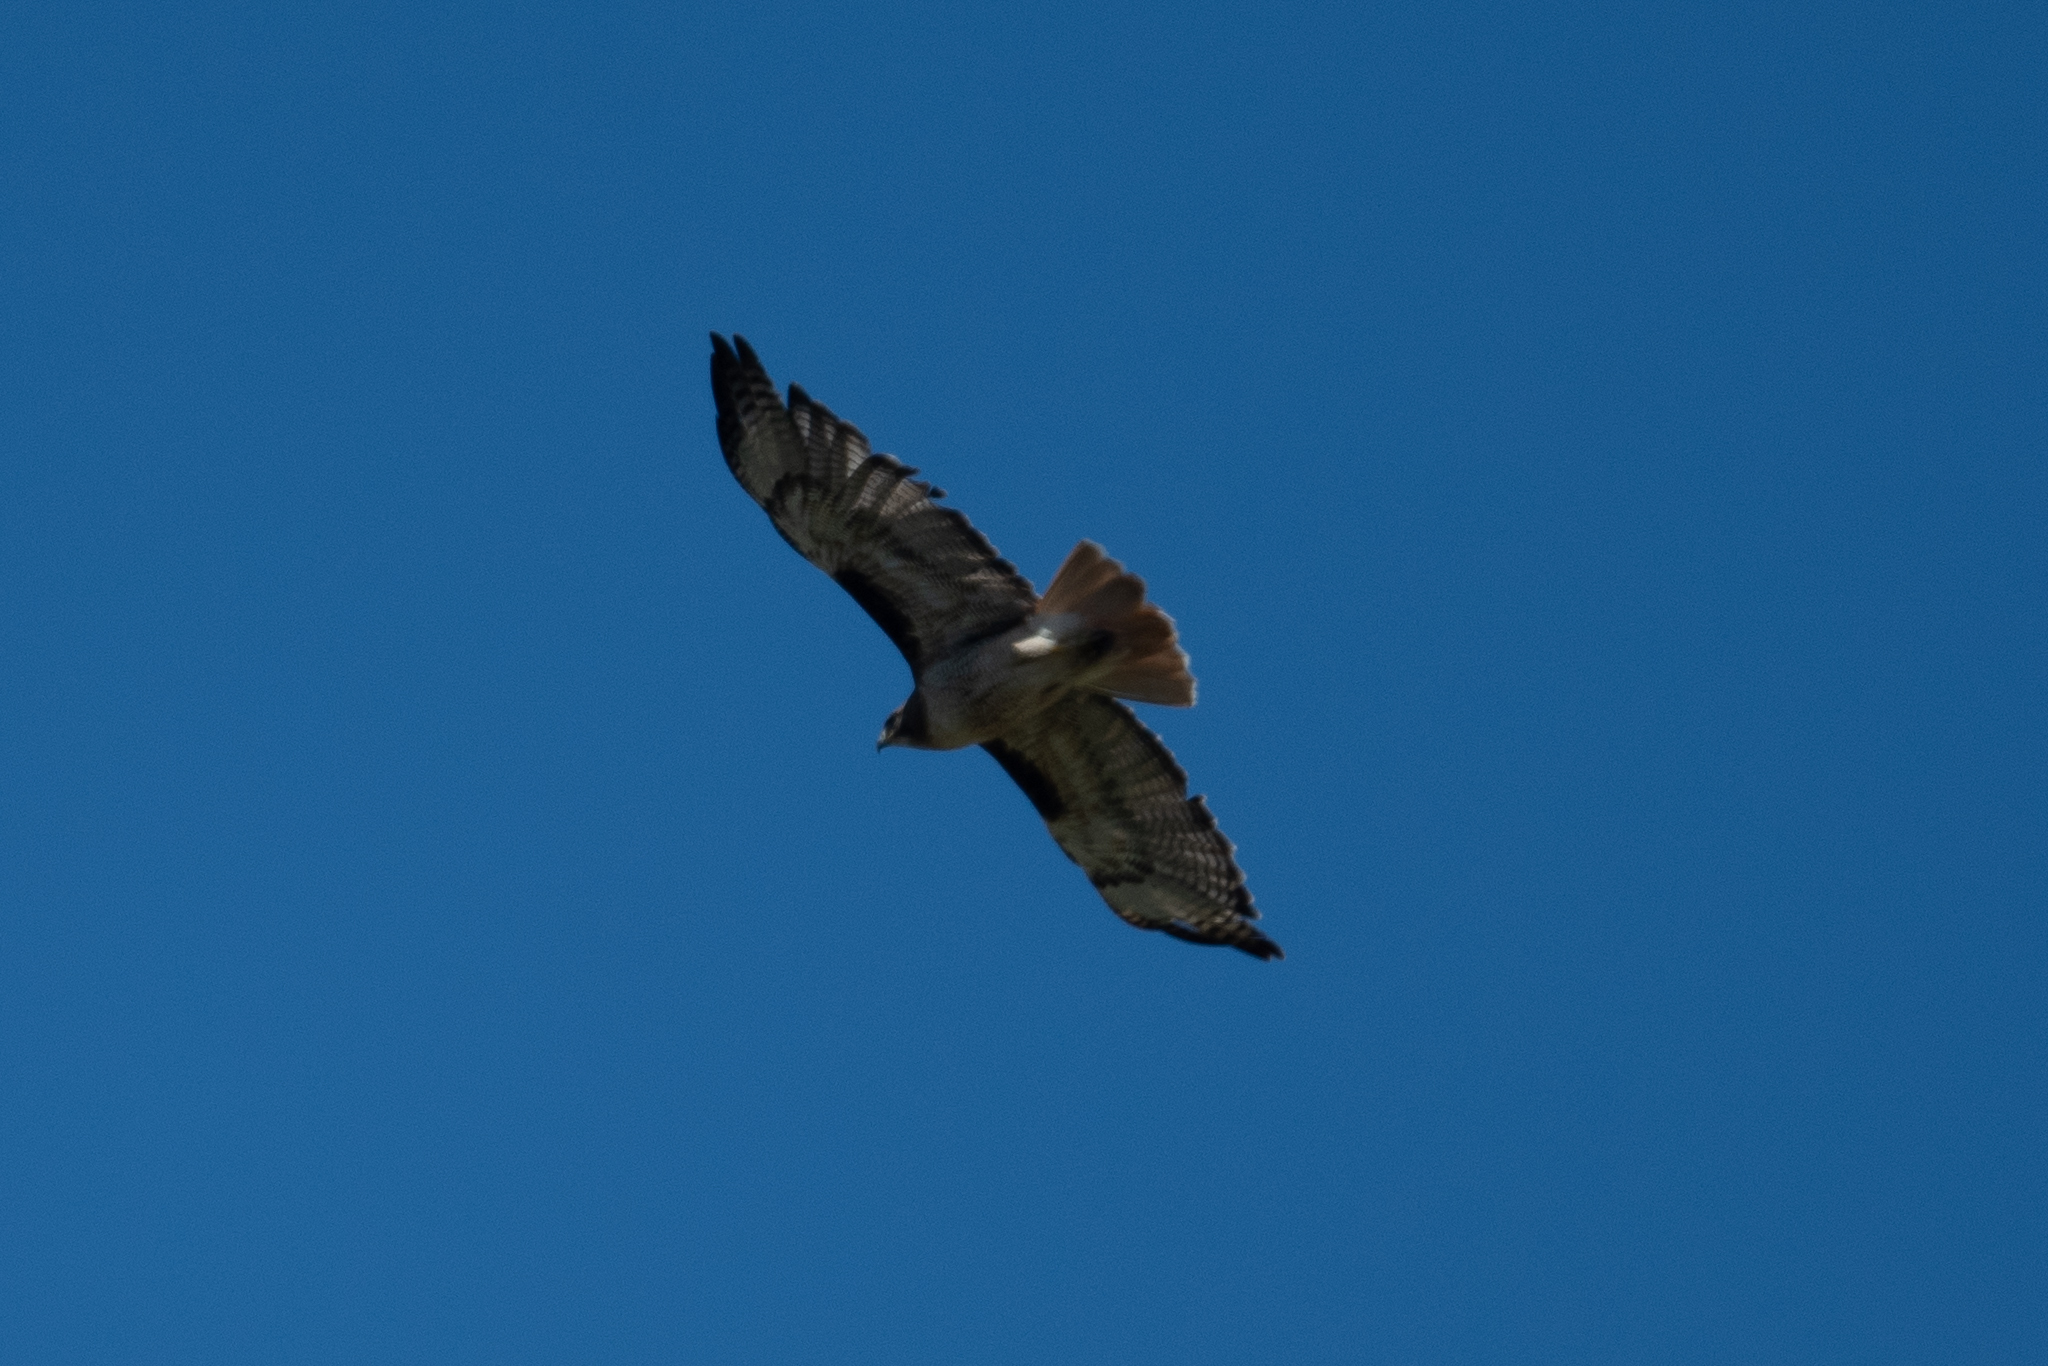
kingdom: Animalia
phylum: Chordata
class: Aves
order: Accipitriformes
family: Accipitridae
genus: Buteo
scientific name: Buteo jamaicensis
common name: Red-tailed hawk
